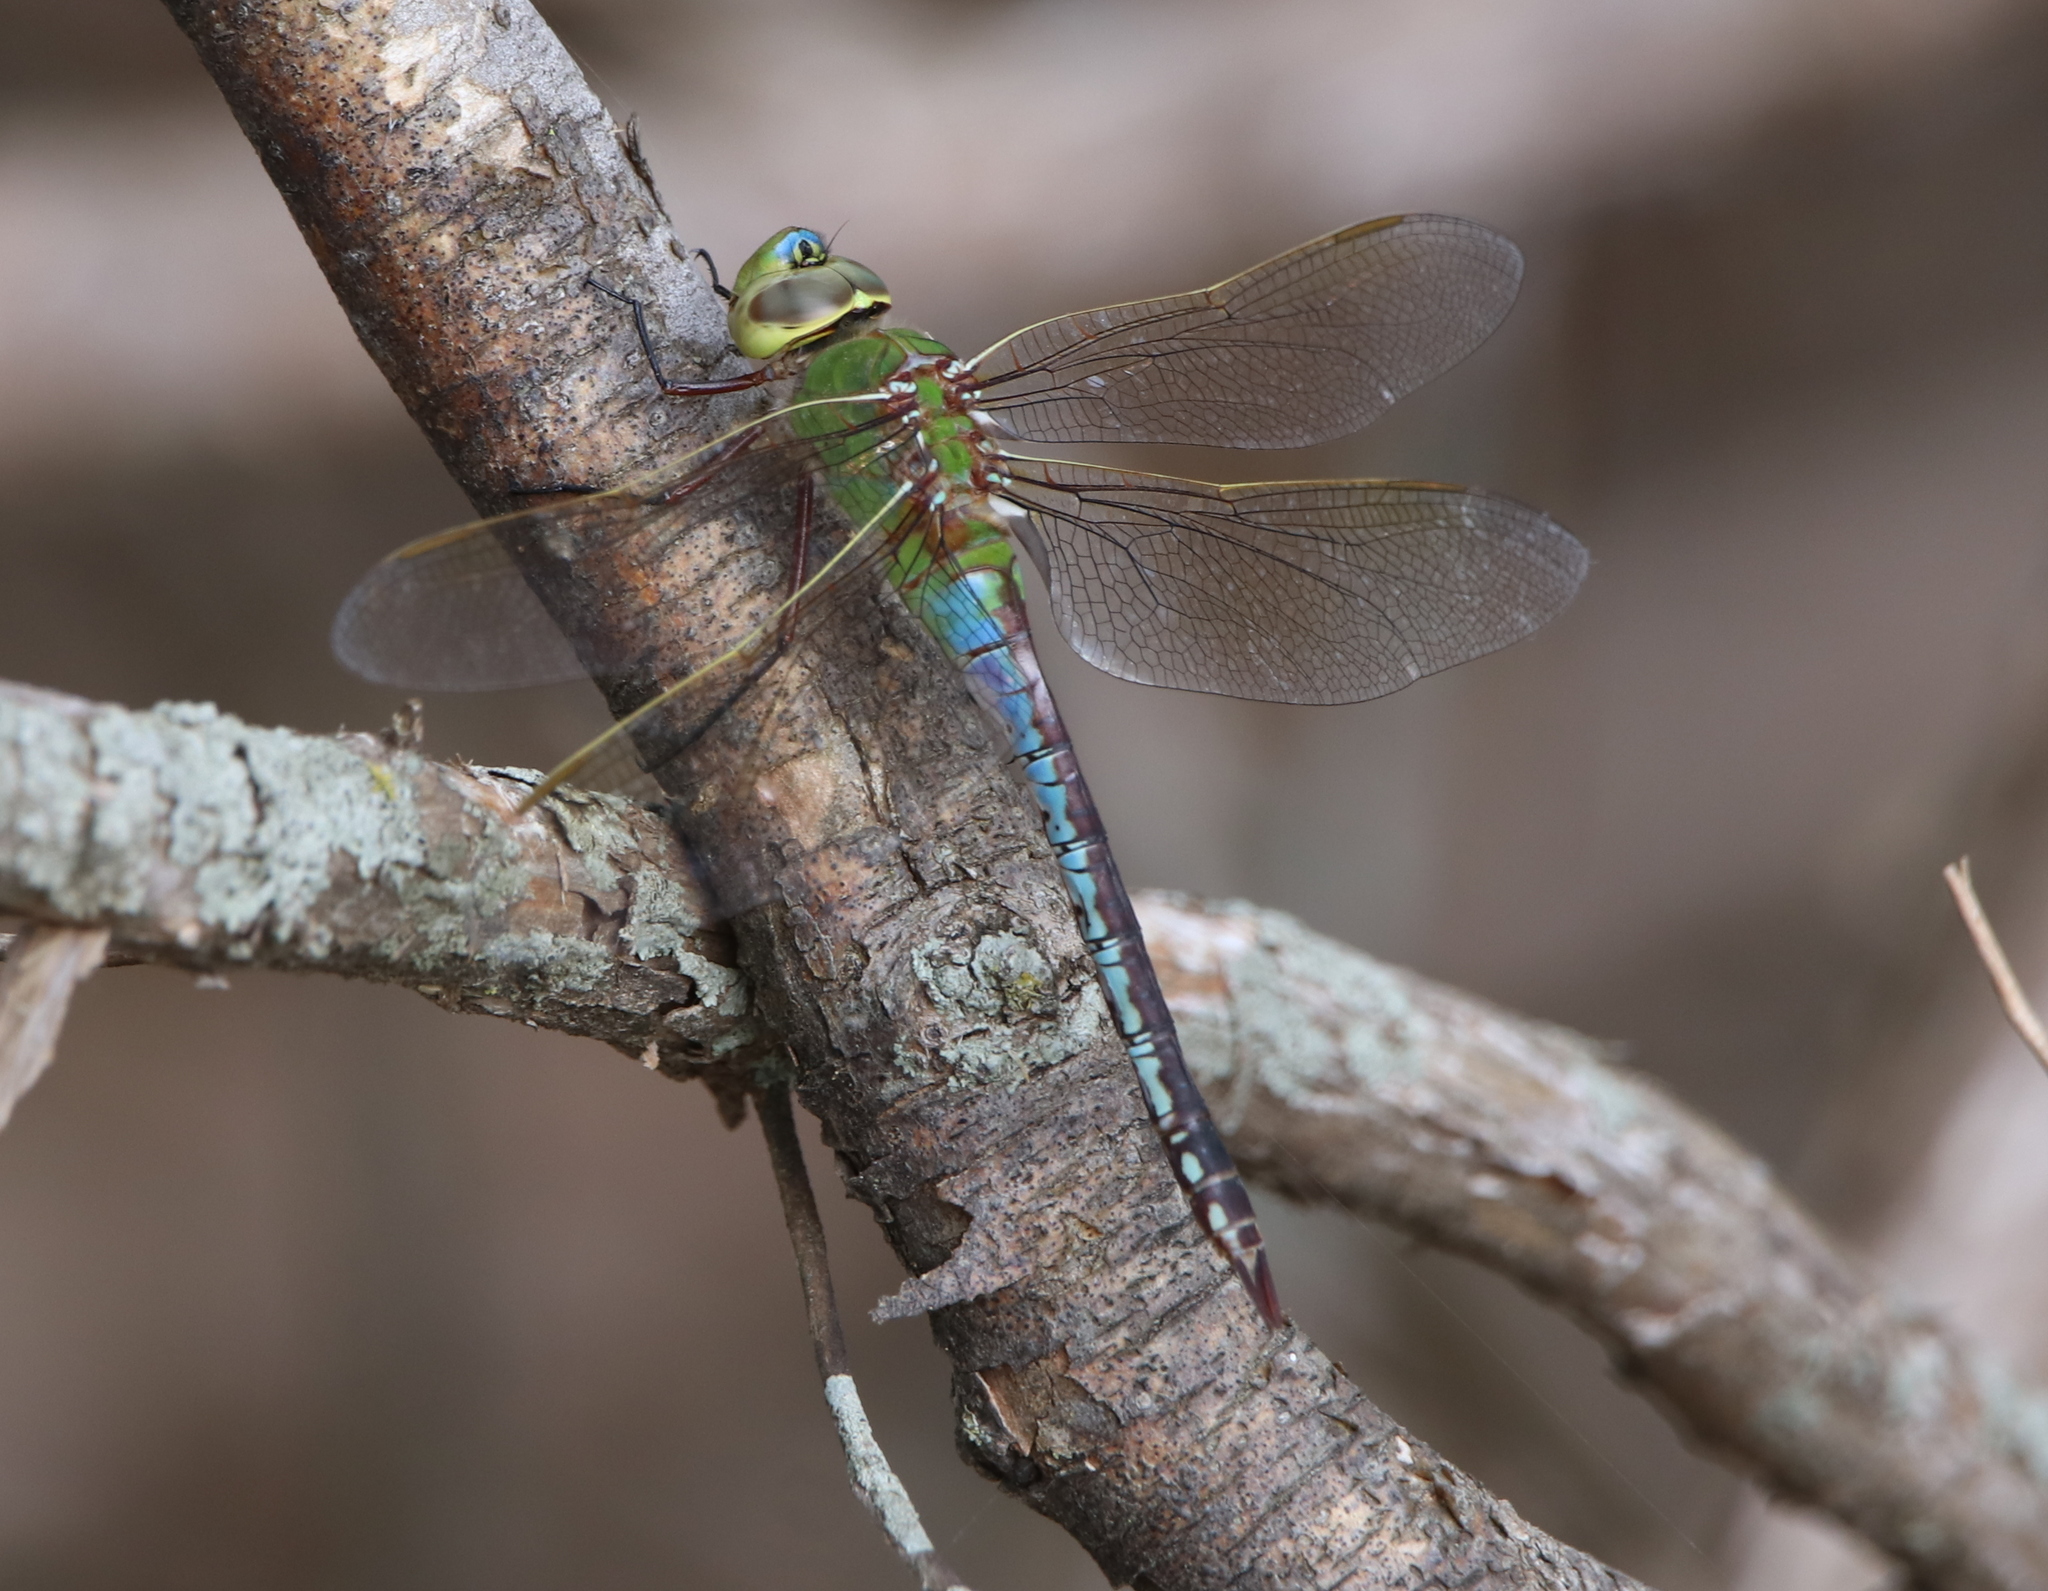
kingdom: Animalia
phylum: Arthropoda
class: Insecta
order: Odonata
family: Aeshnidae
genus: Anax
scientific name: Anax junius
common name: Common green darner
